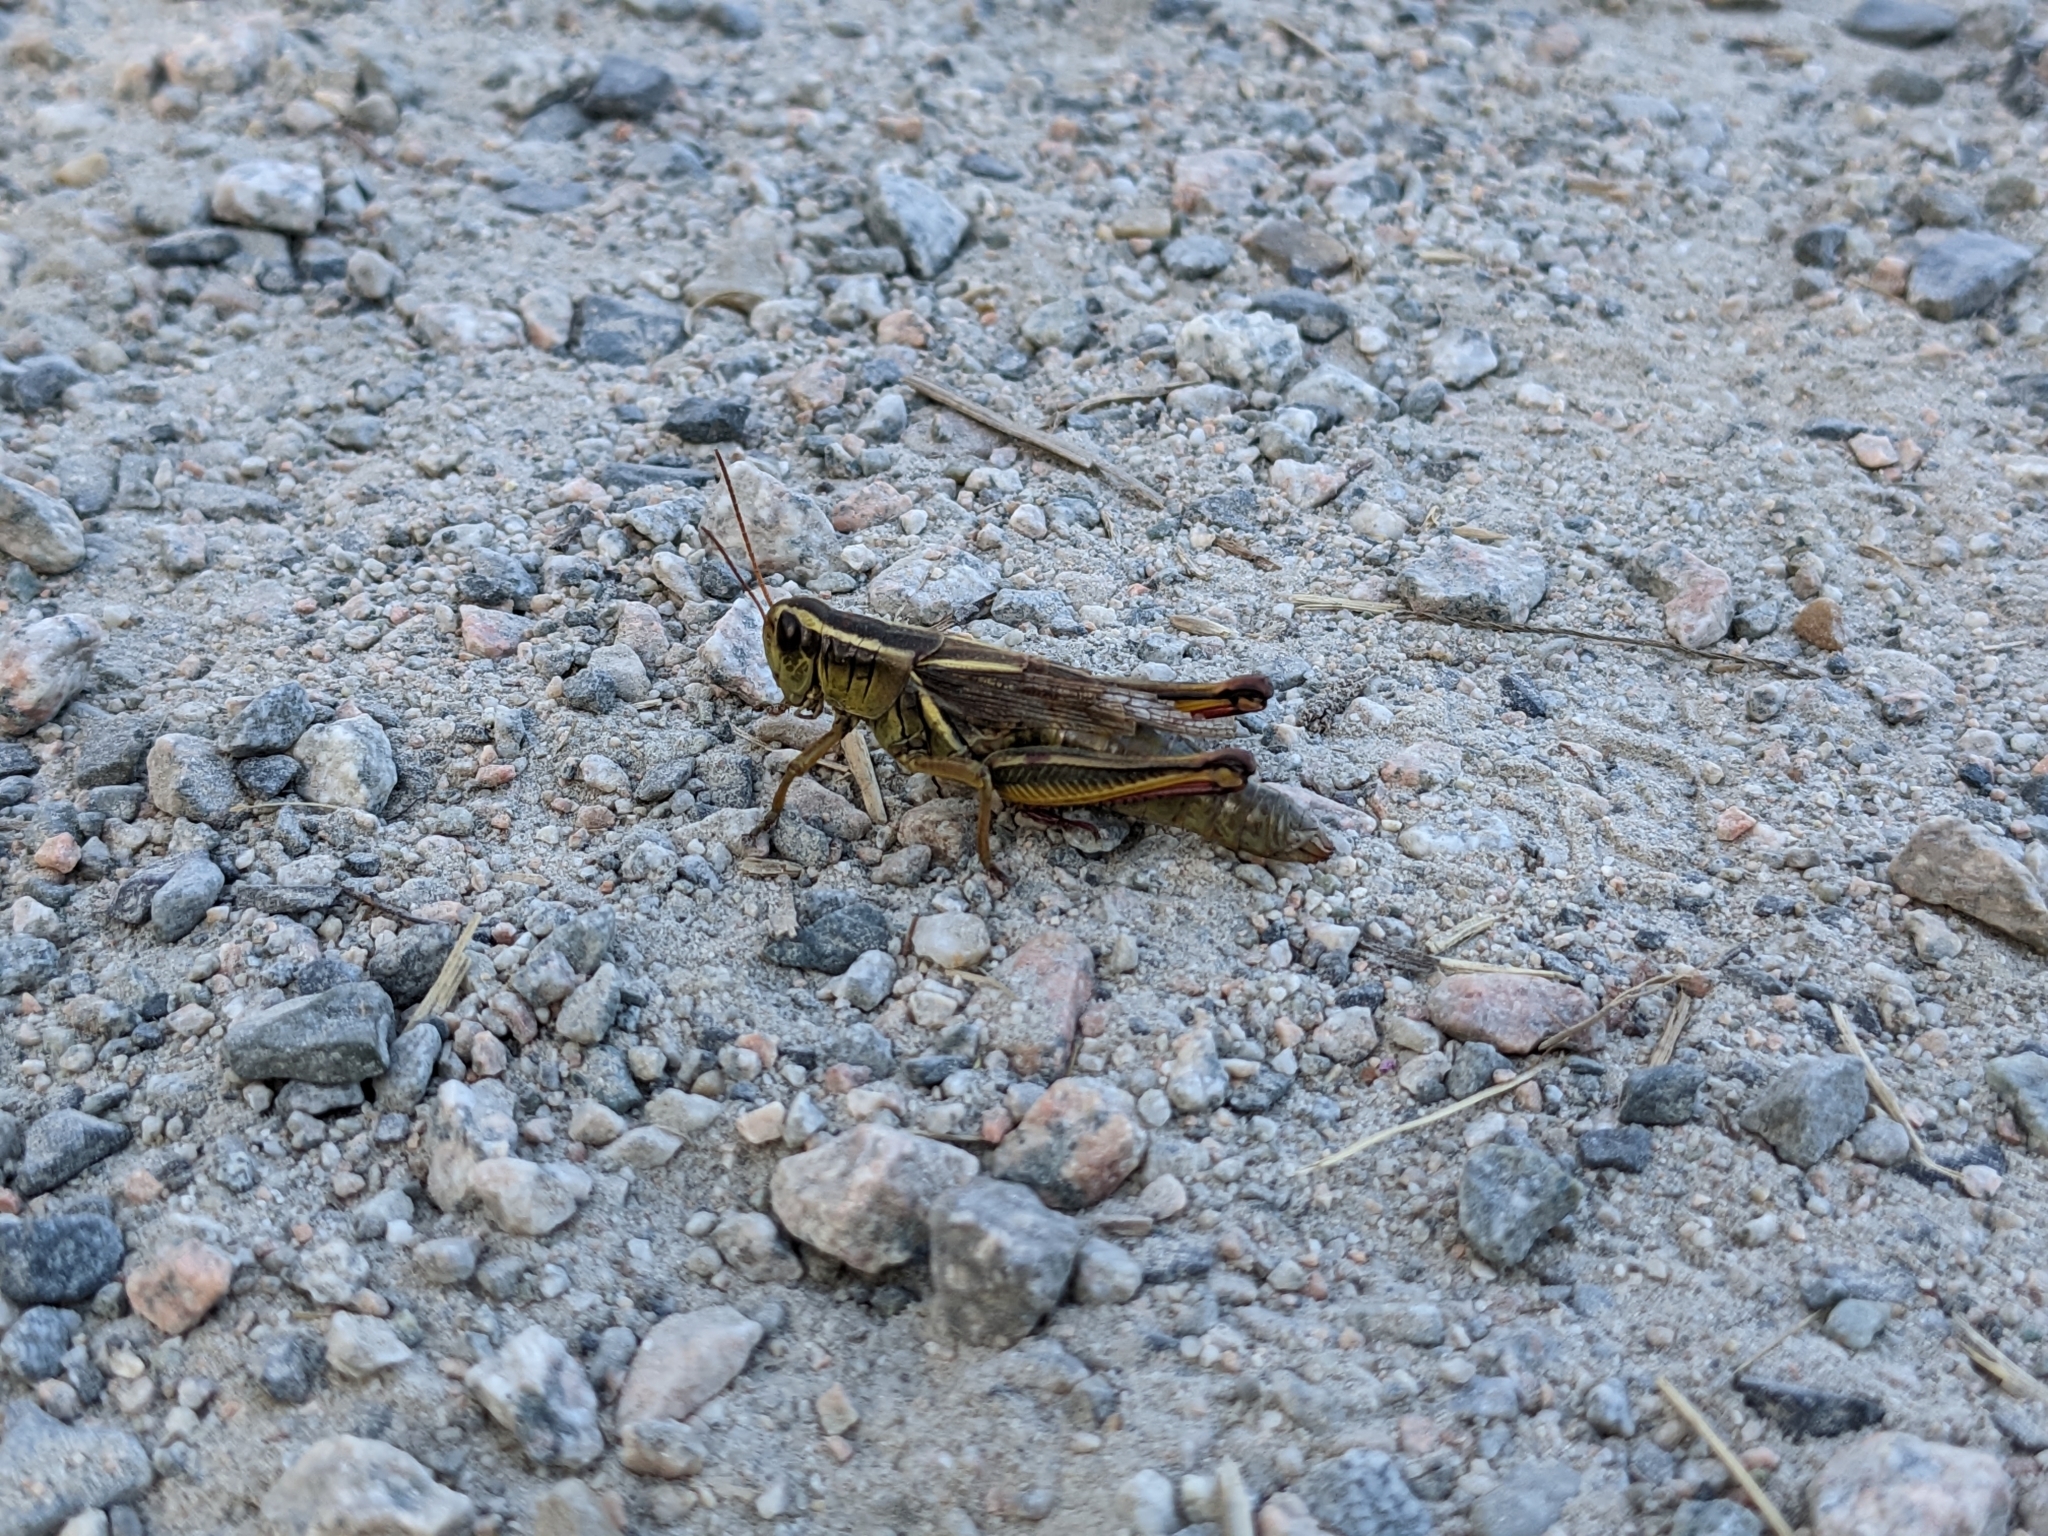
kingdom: Animalia
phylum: Arthropoda
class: Insecta
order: Orthoptera
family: Acrididae
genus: Melanoplus
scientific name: Melanoplus bivittatus
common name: Two-striped grasshopper
